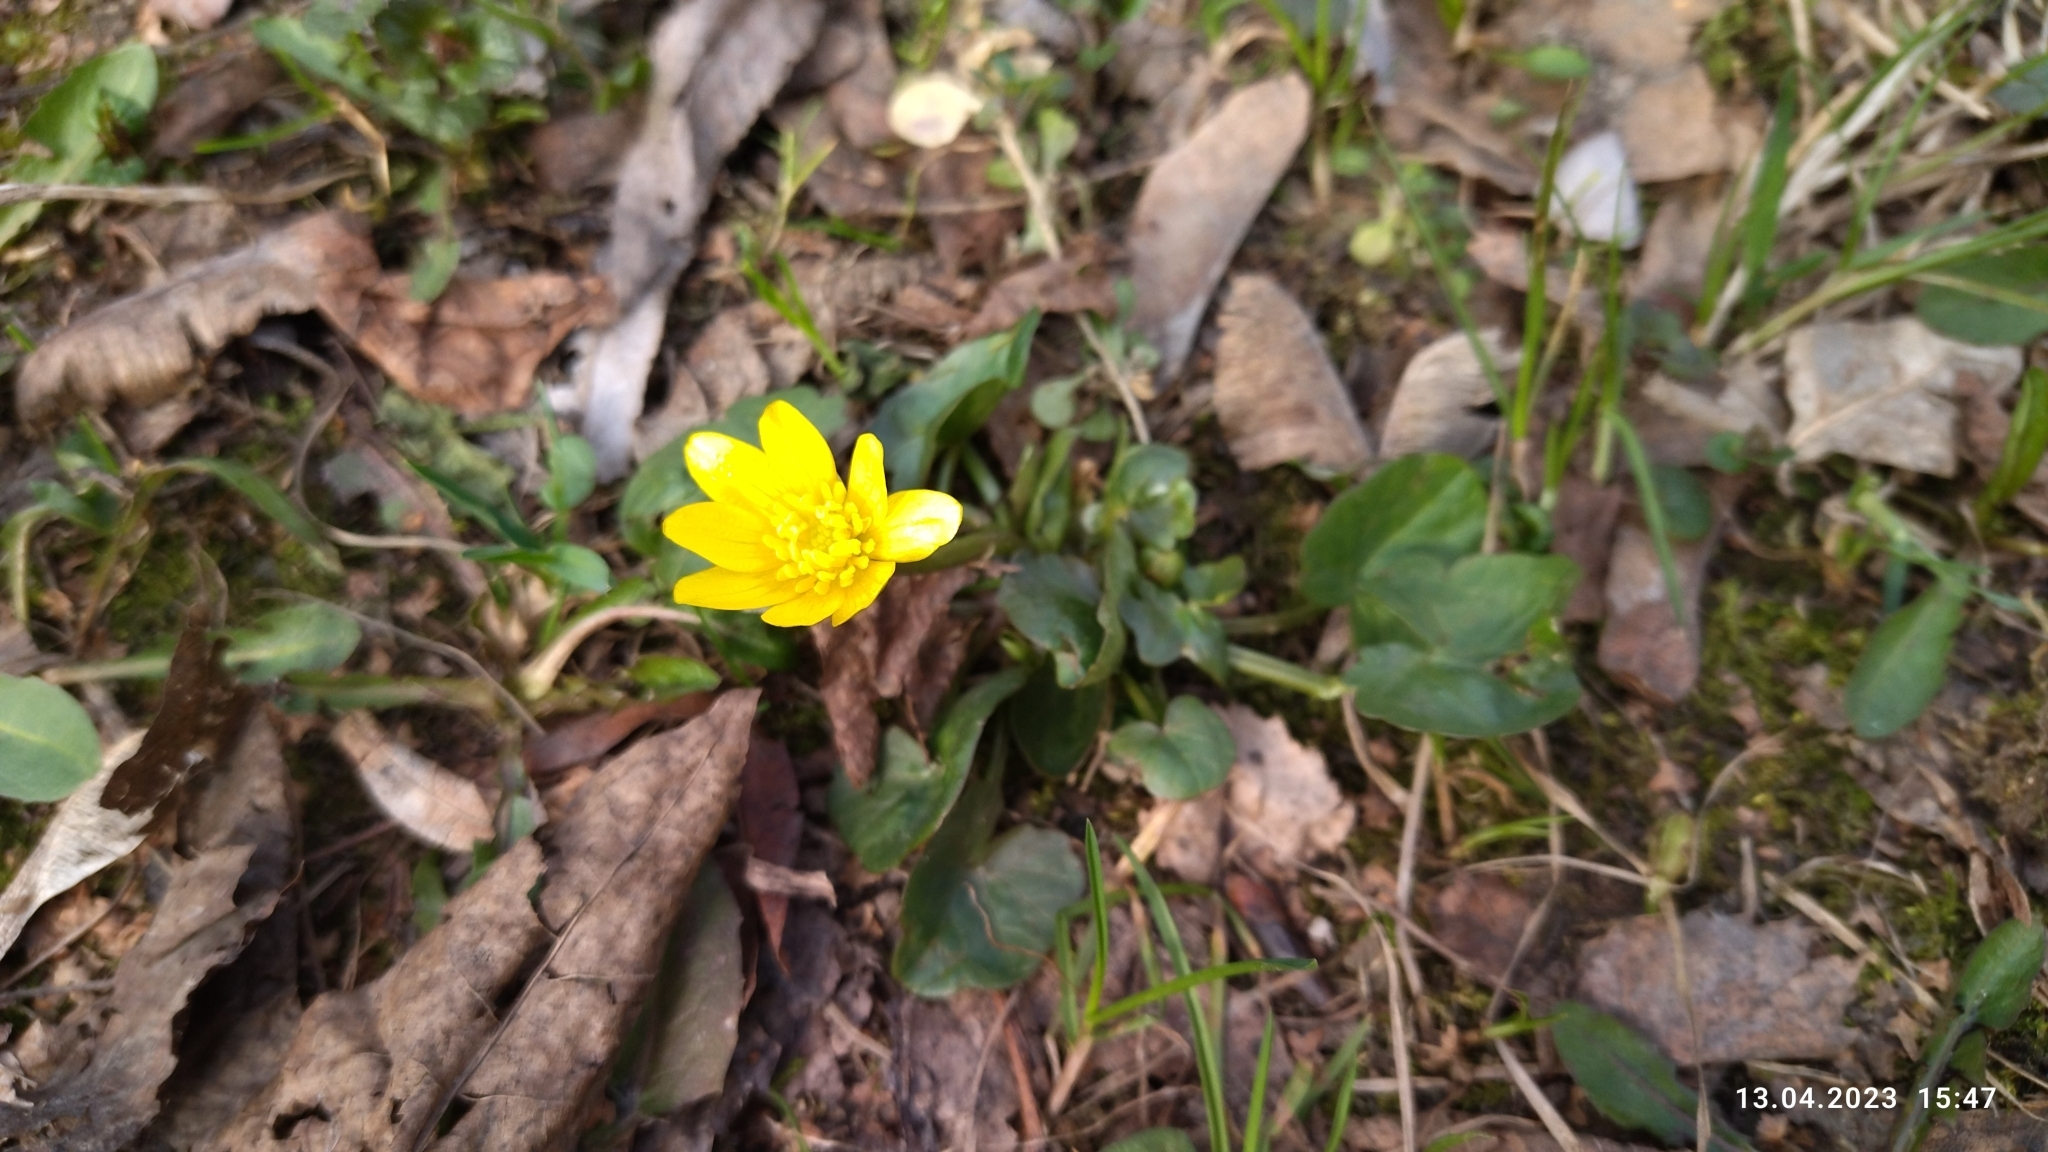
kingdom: Plantae
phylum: Tracheophyta
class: Magnoliopsida
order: Ranunculales
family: Ranunculaceae
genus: Ficaria
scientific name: Ficaria verna
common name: Lesser celandine
